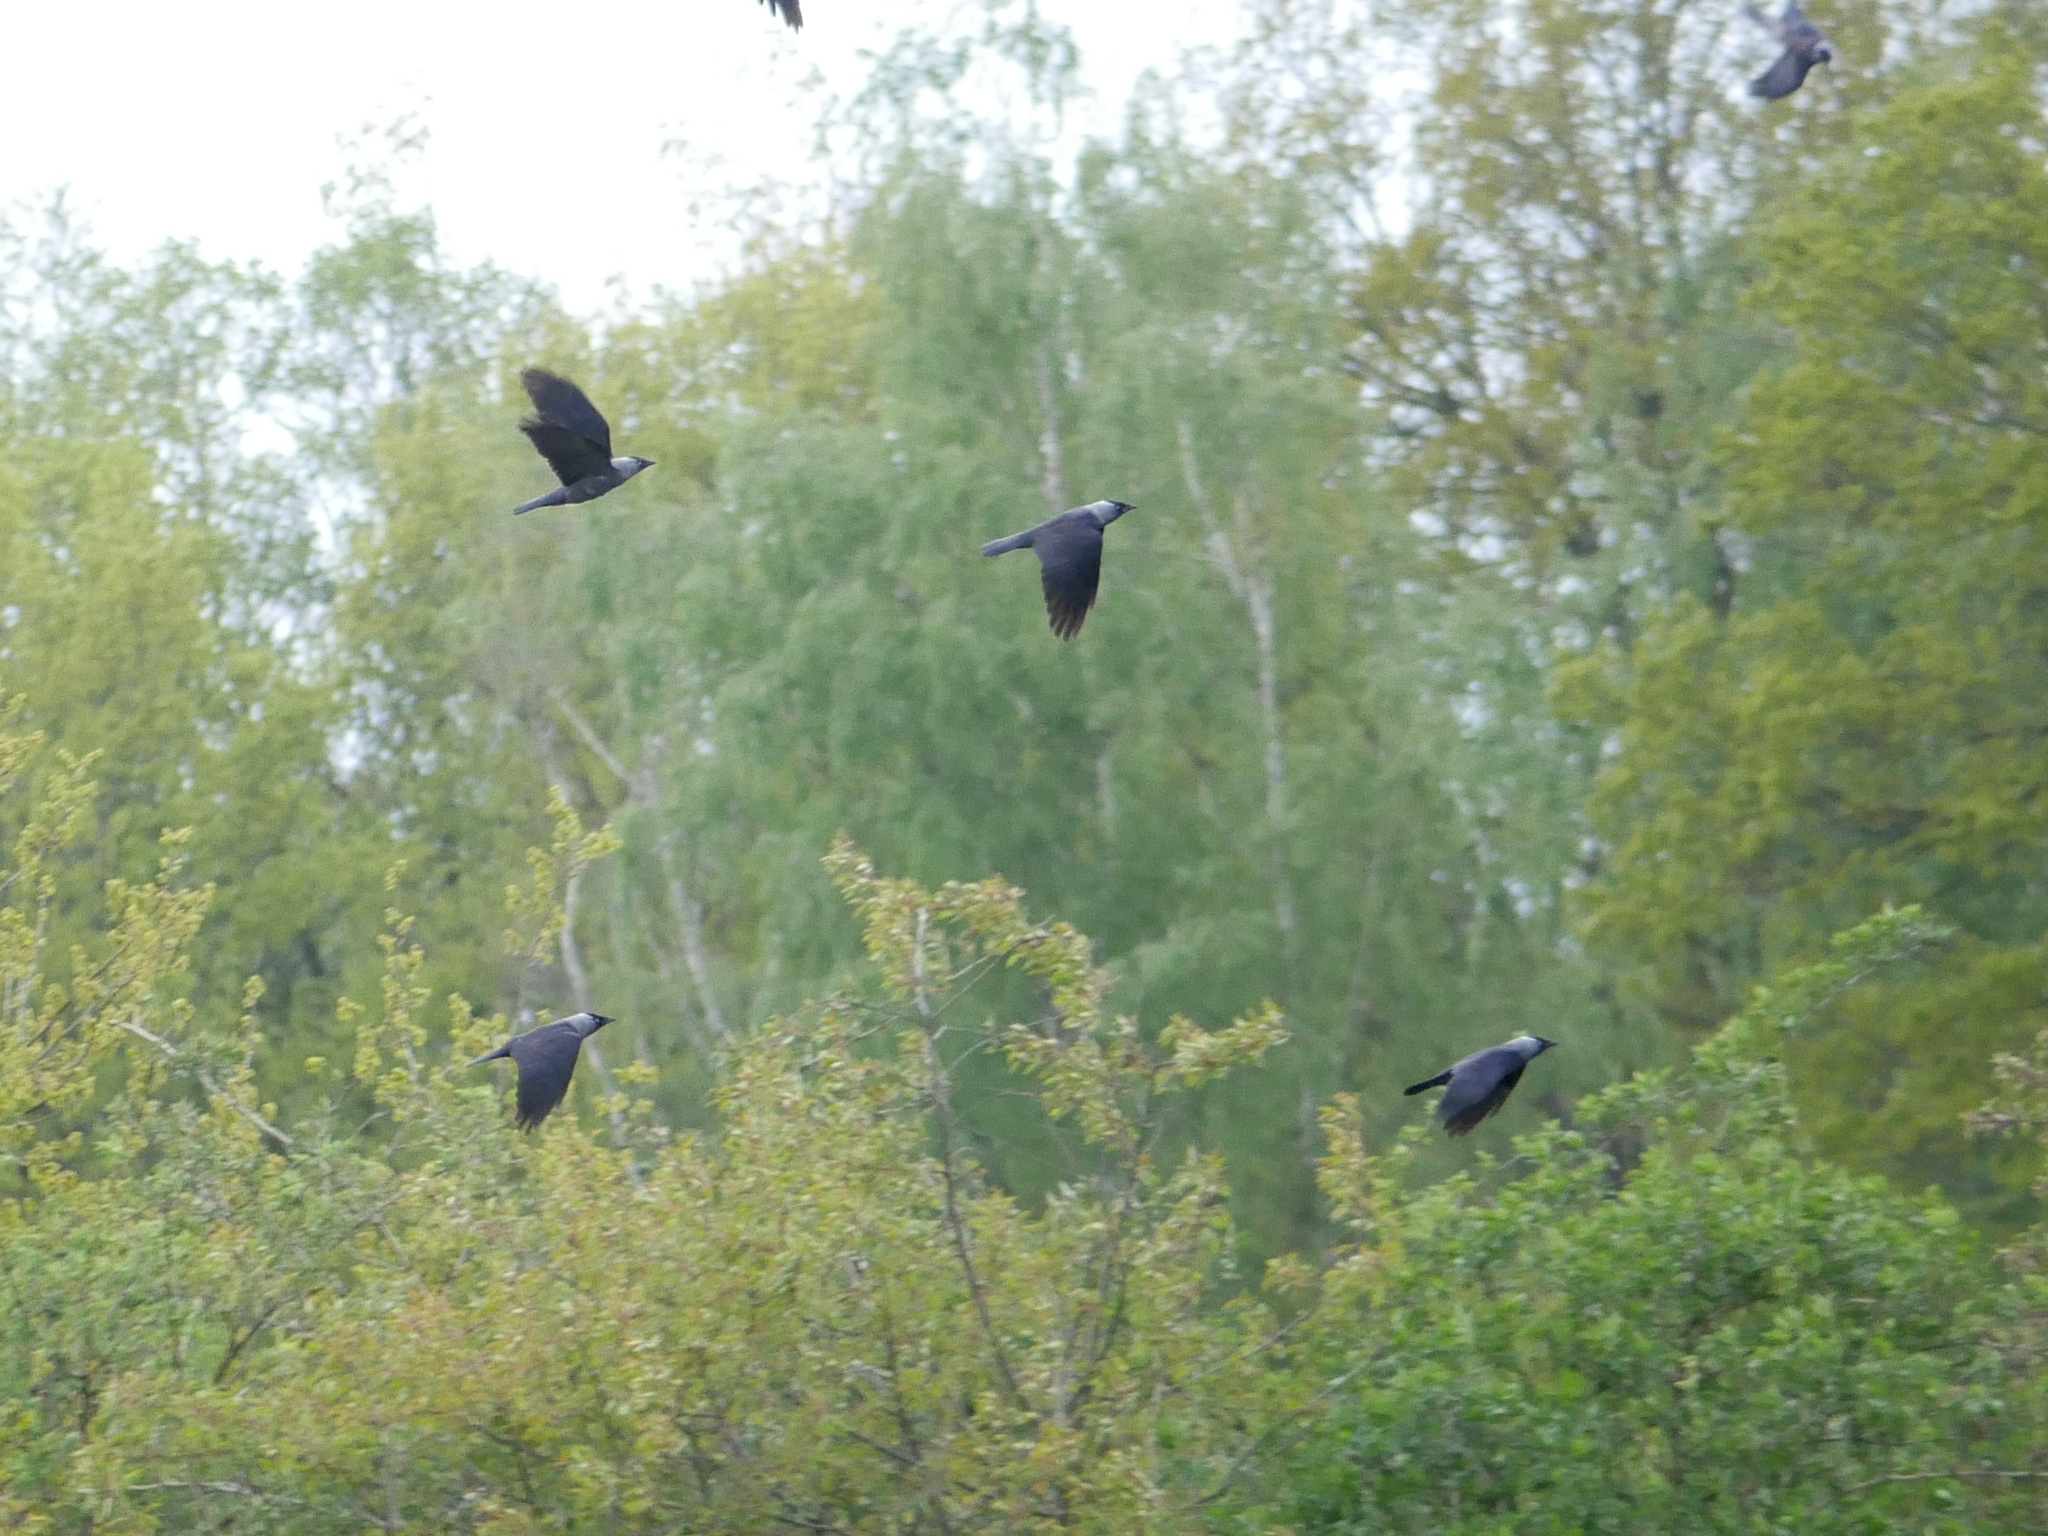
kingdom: Animalia
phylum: Chordata
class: Aves
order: Passeriformes
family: Corvidae
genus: Coloeus
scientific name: Coloeus monedula
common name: Western jackdaw
